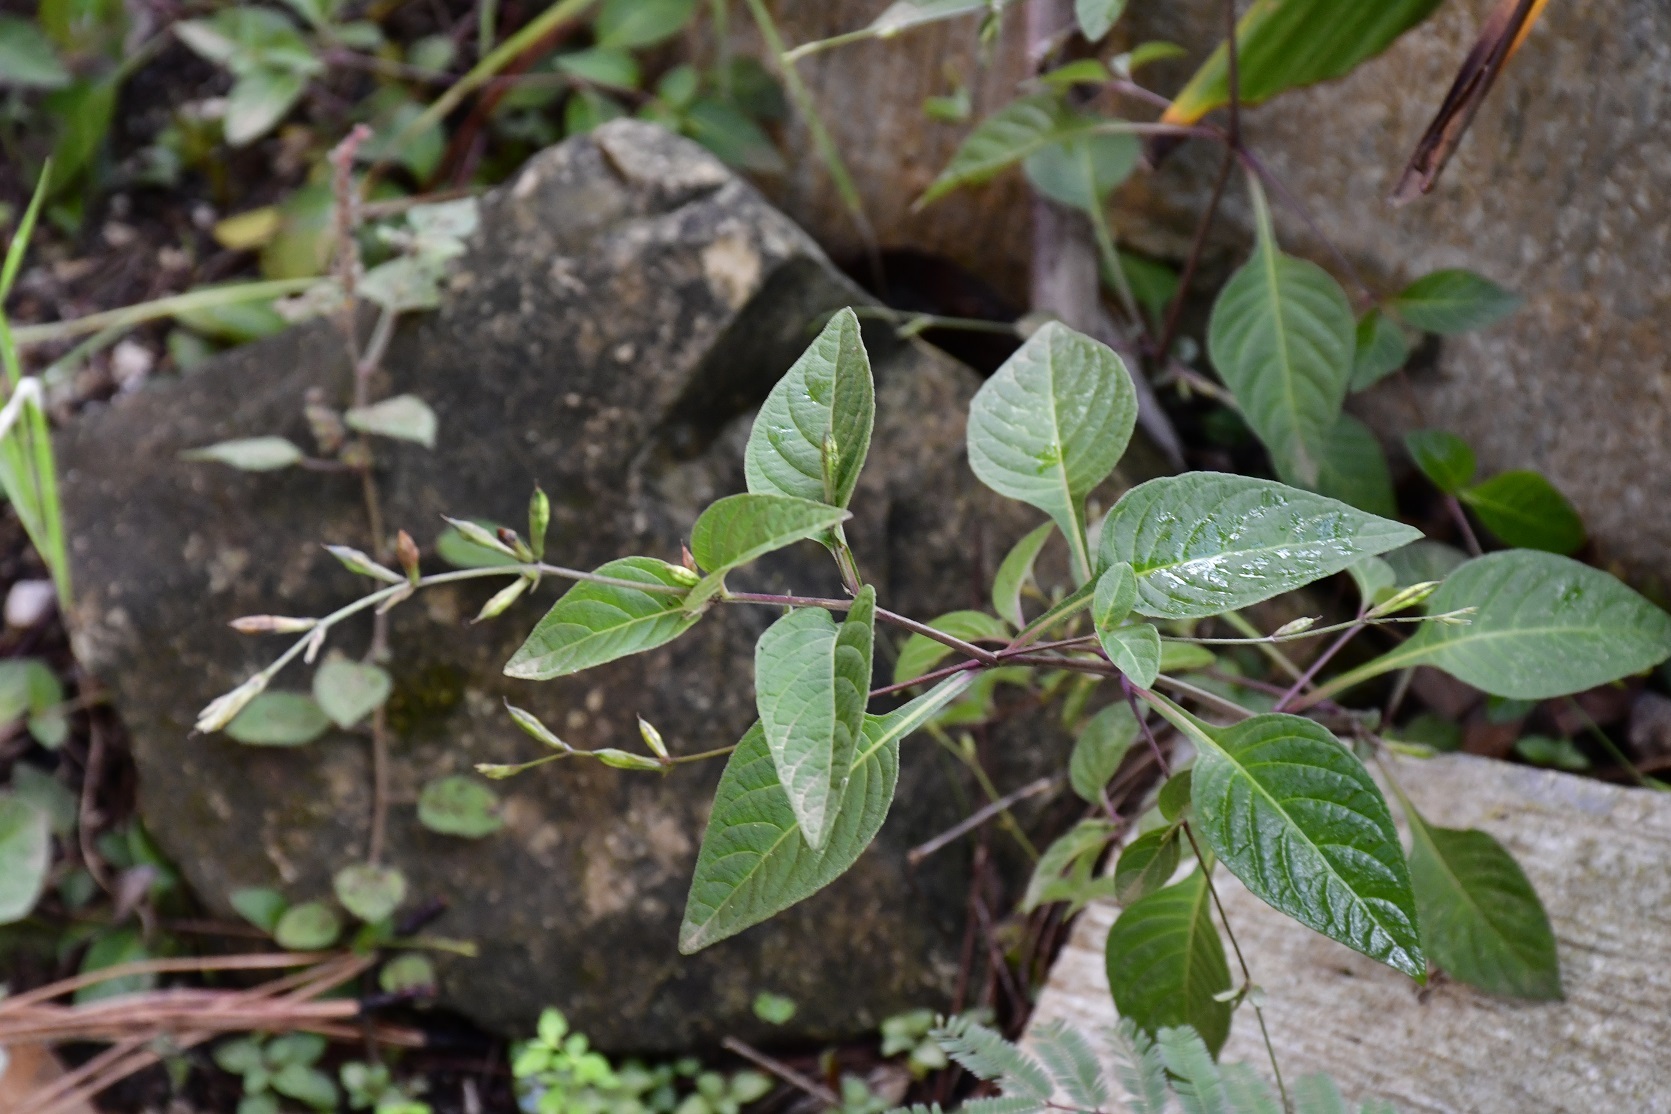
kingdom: Plantae
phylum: Tracheophyta
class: Magnoliopsida
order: Lamiales
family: Acanthaceae
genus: Pseuderanthemum
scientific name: Pseuderanthemum praecox
